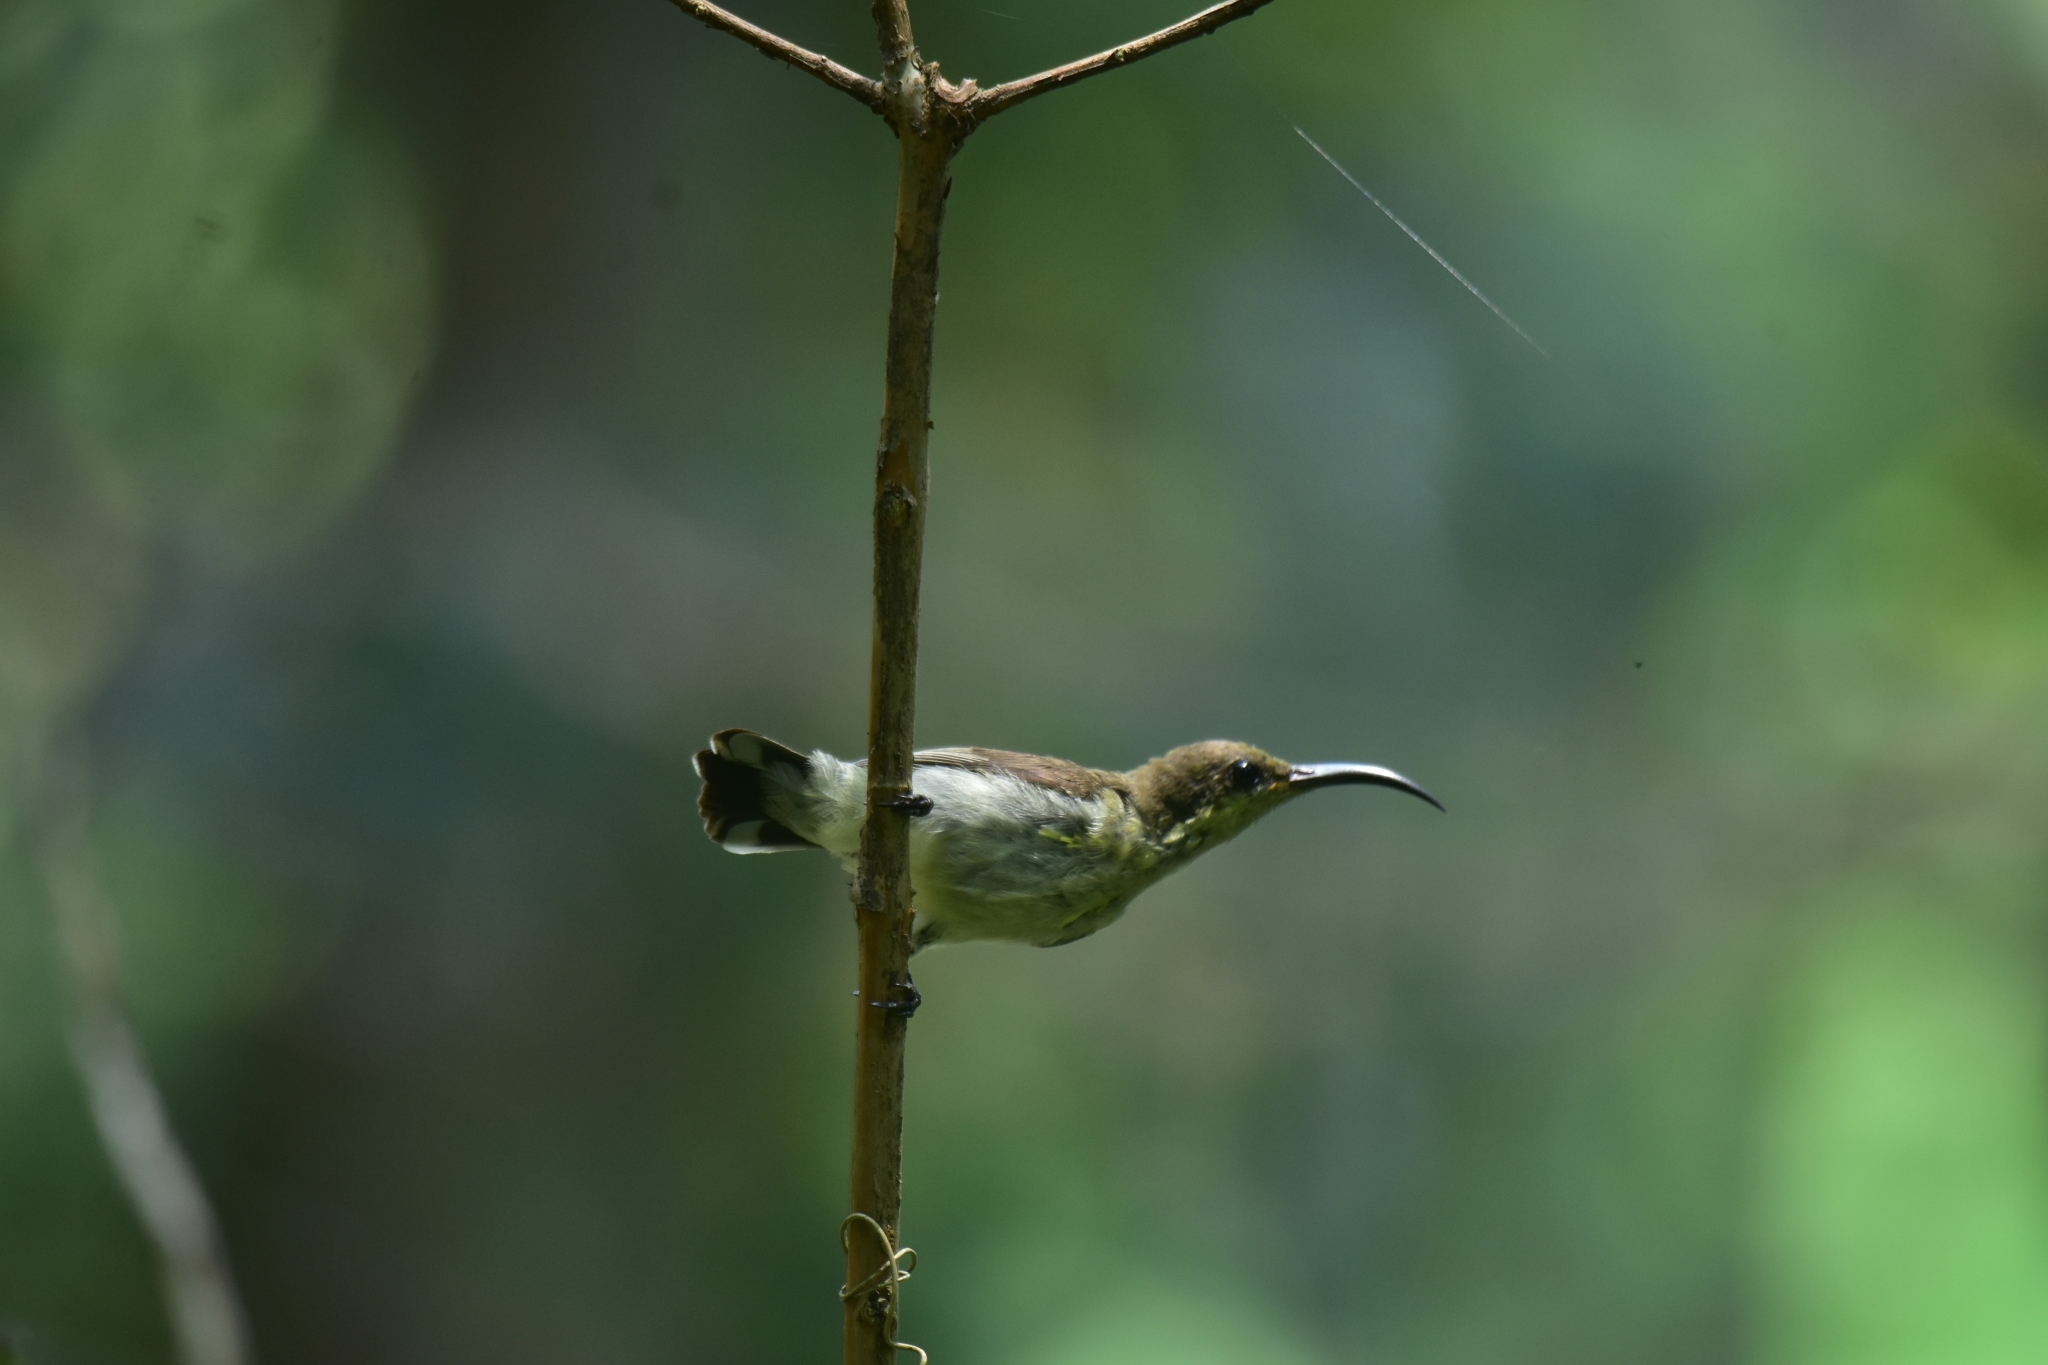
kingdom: Animalia
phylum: Chordata
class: Aves
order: Passeriformes
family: Nectariniidae
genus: Cinnyris
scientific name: Cinnyris lotenius
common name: Loten's sunbird
